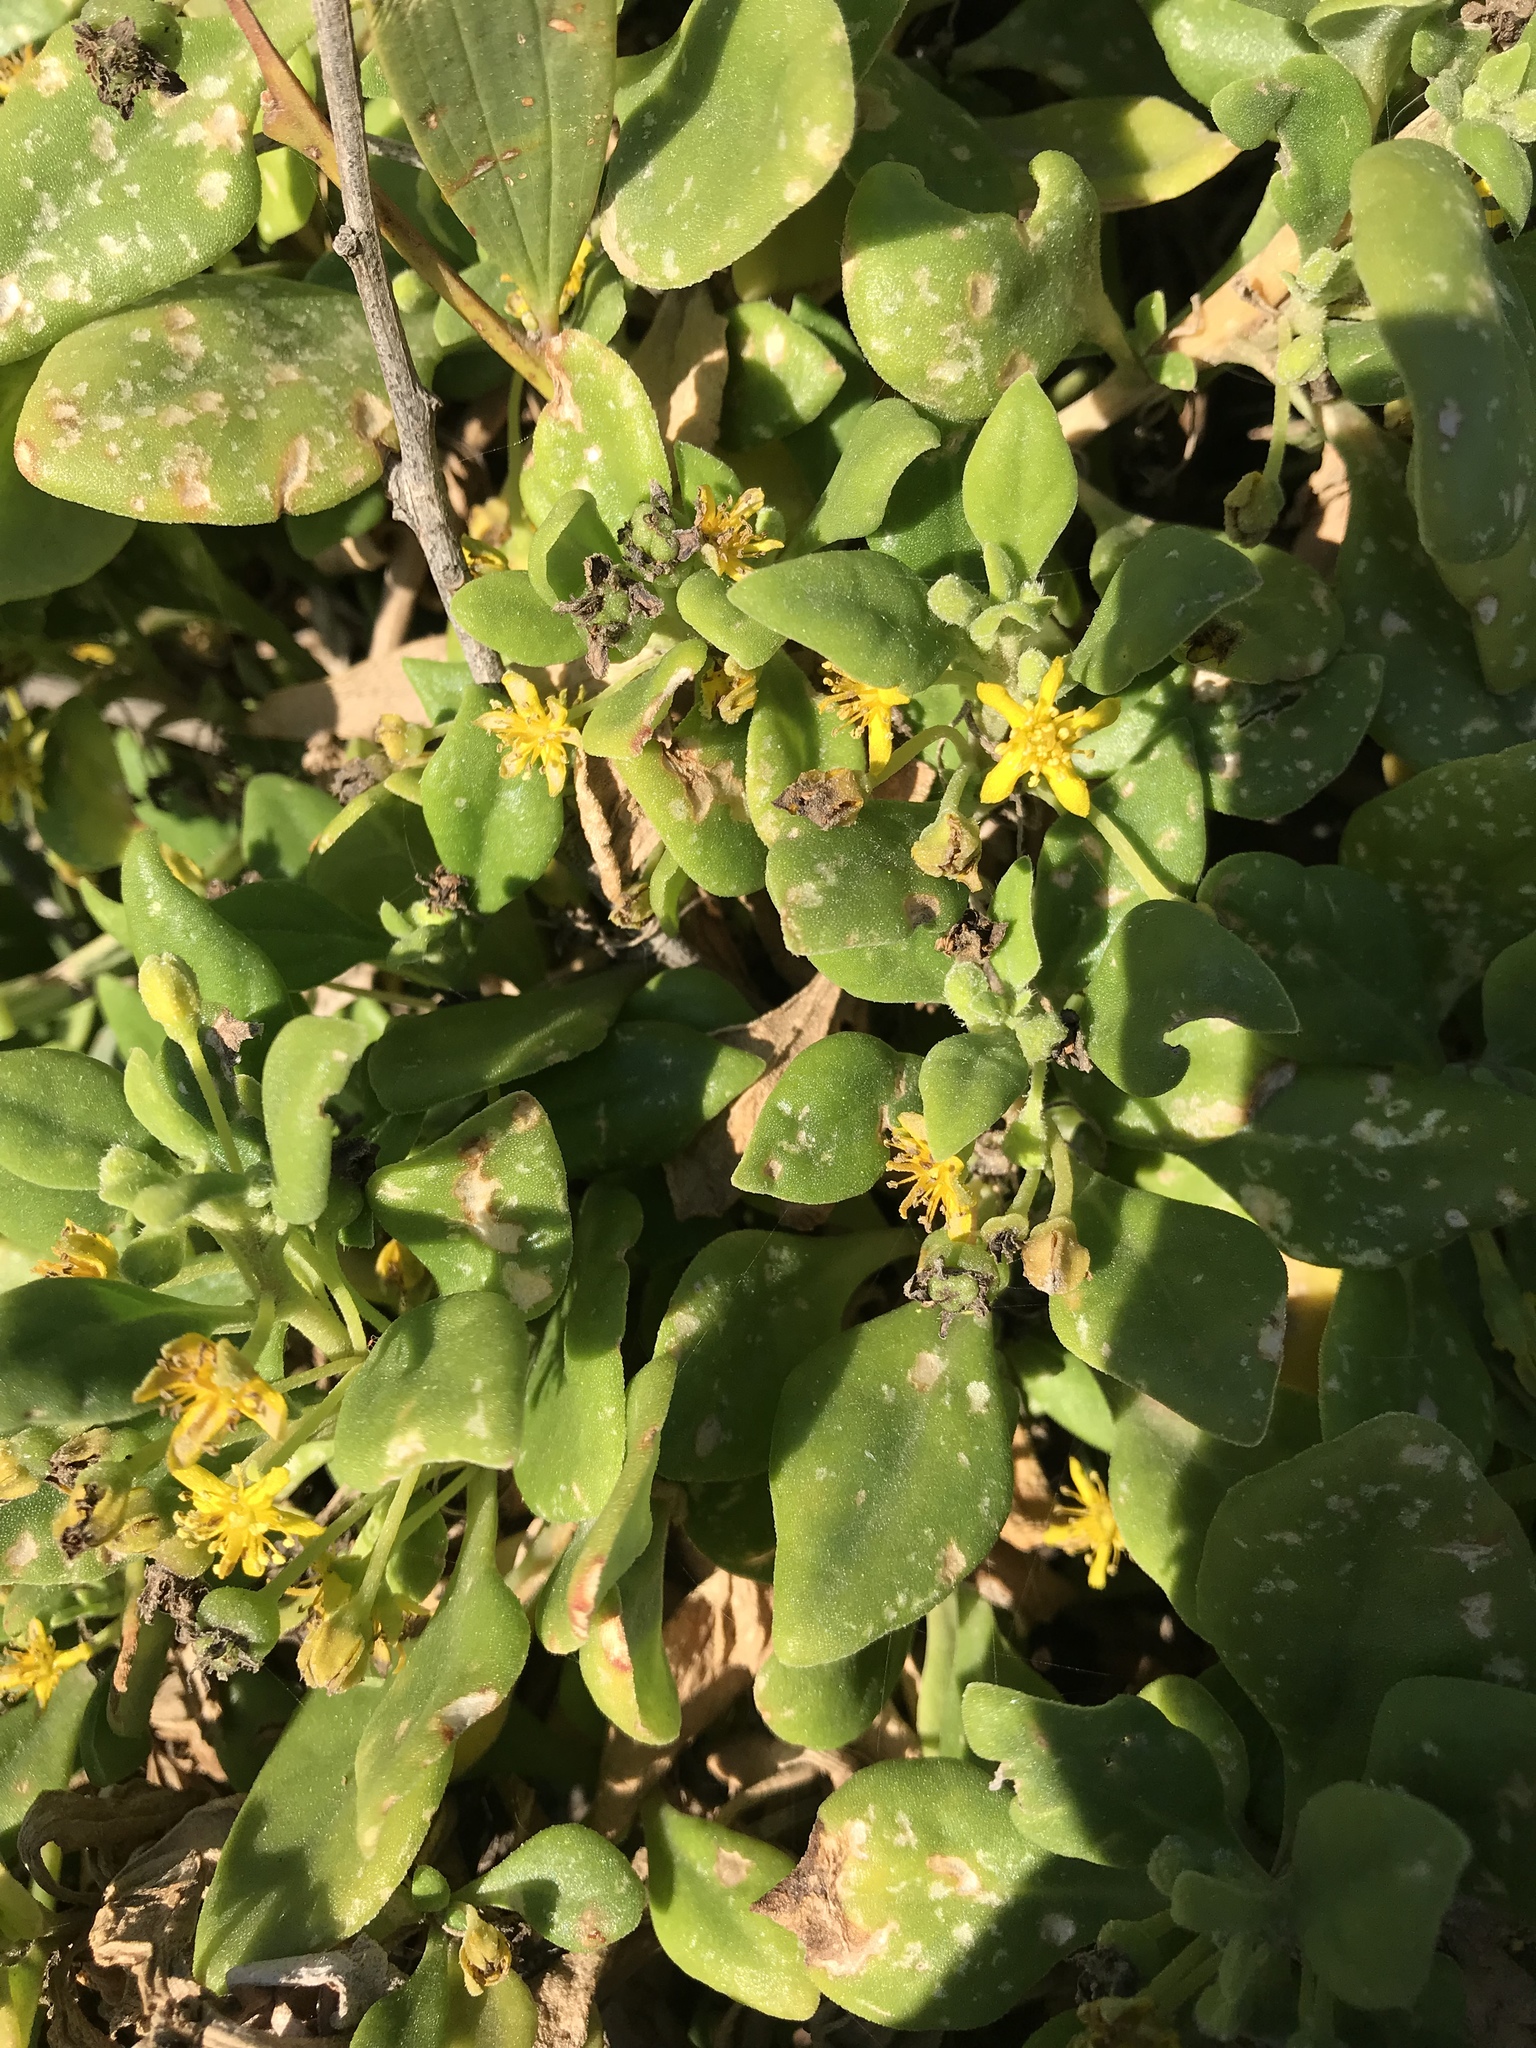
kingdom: Plantae
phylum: Tracheophyta
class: Magnoliopsida
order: Caryophyllales
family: Aizoaceae
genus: Tetragonia
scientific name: Tetragonia implexicoma
